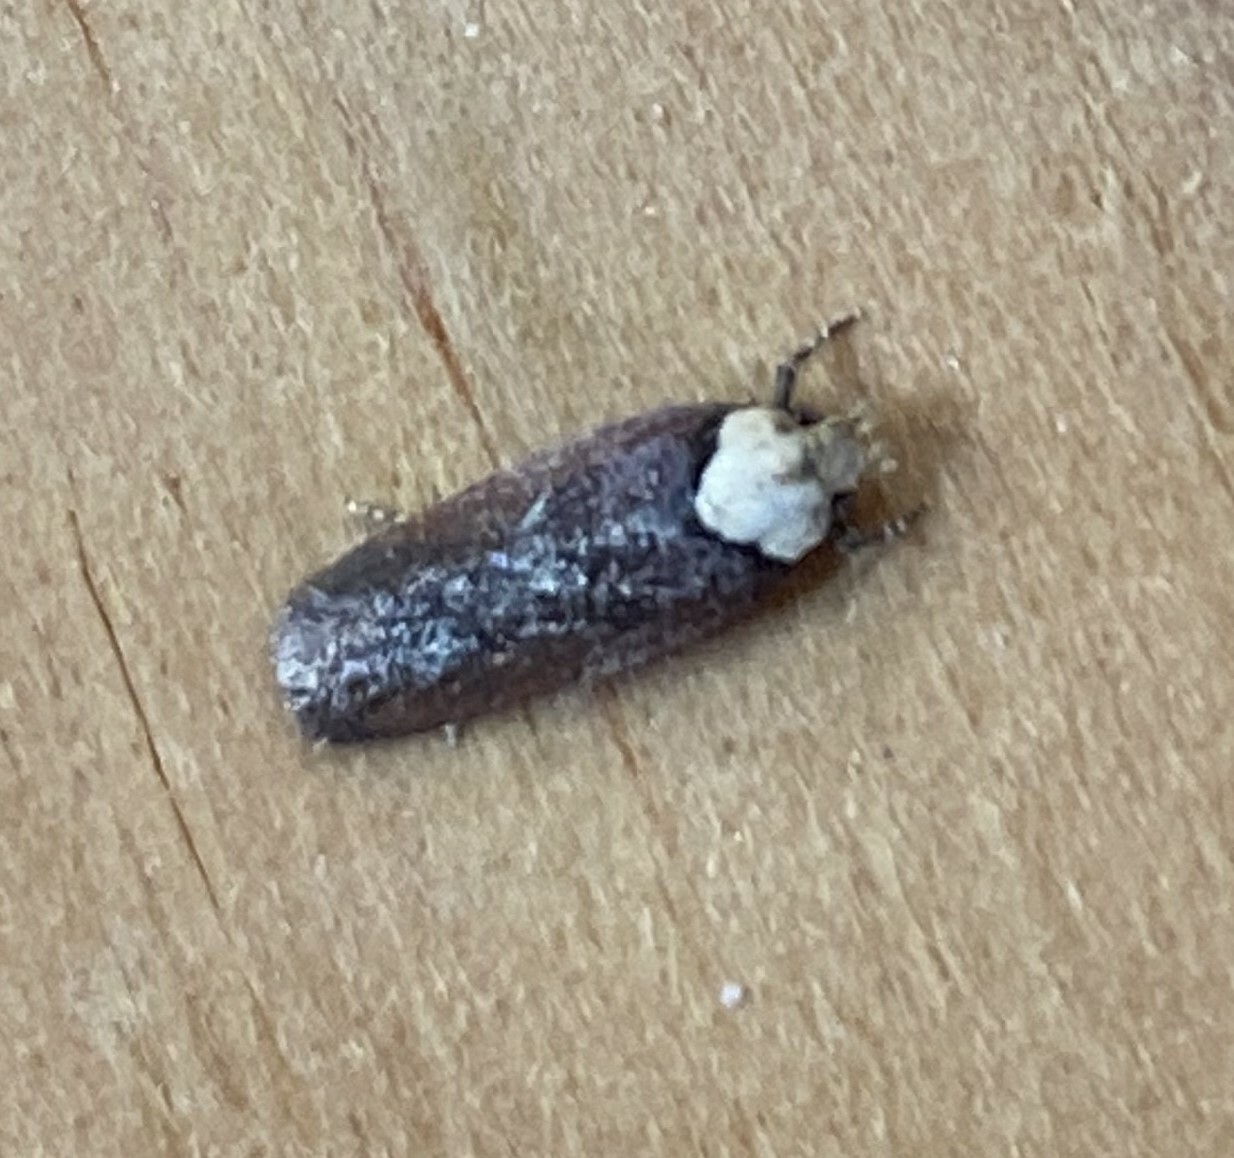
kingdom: Animalia
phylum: Arthropoda
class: Insecta
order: Lepidoptera
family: Depressariidae
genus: Depressaria
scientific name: Depressaria depressana
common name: Lost flat-body
